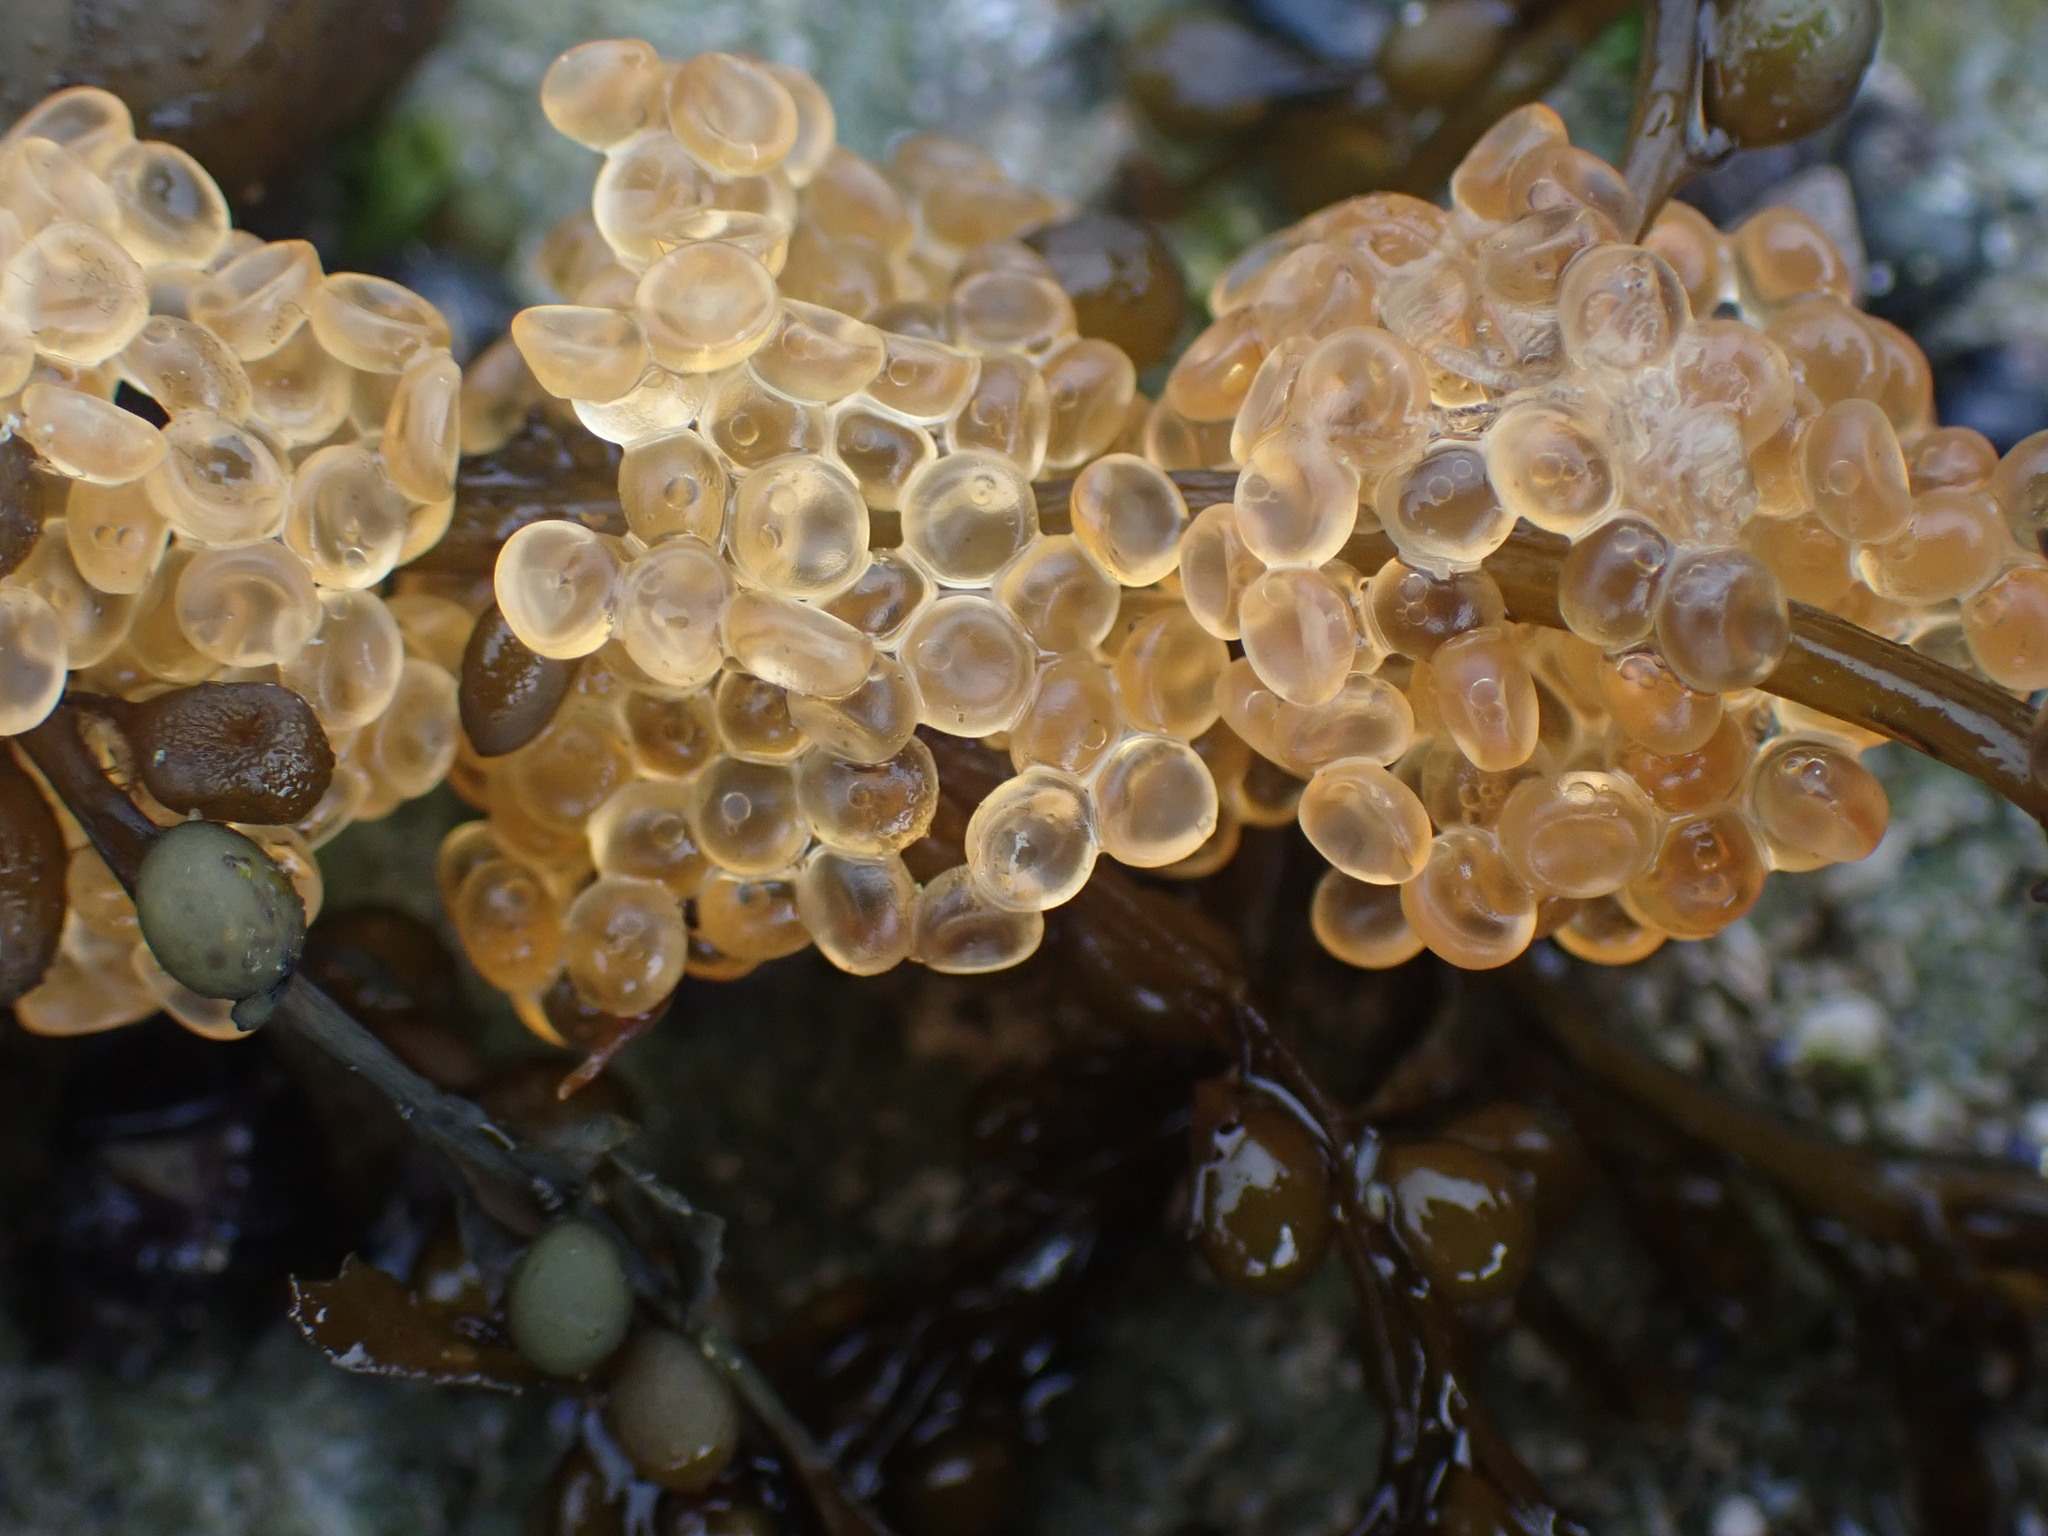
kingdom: Animalia
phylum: Chordata
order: Gasterosteiformes
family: Aulorhynchidae
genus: Aulorhynchus
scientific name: Aulorhynchus flavidus
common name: Tube-snout
